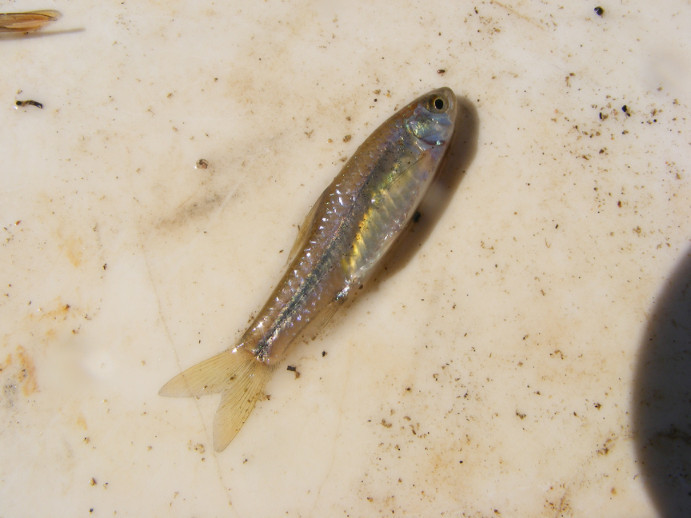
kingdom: Animalia
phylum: Chordata
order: Cypriniformes
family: Cyprinidae
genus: Enteromius
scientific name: Enteromius viviparus
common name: Bowstripe barb
